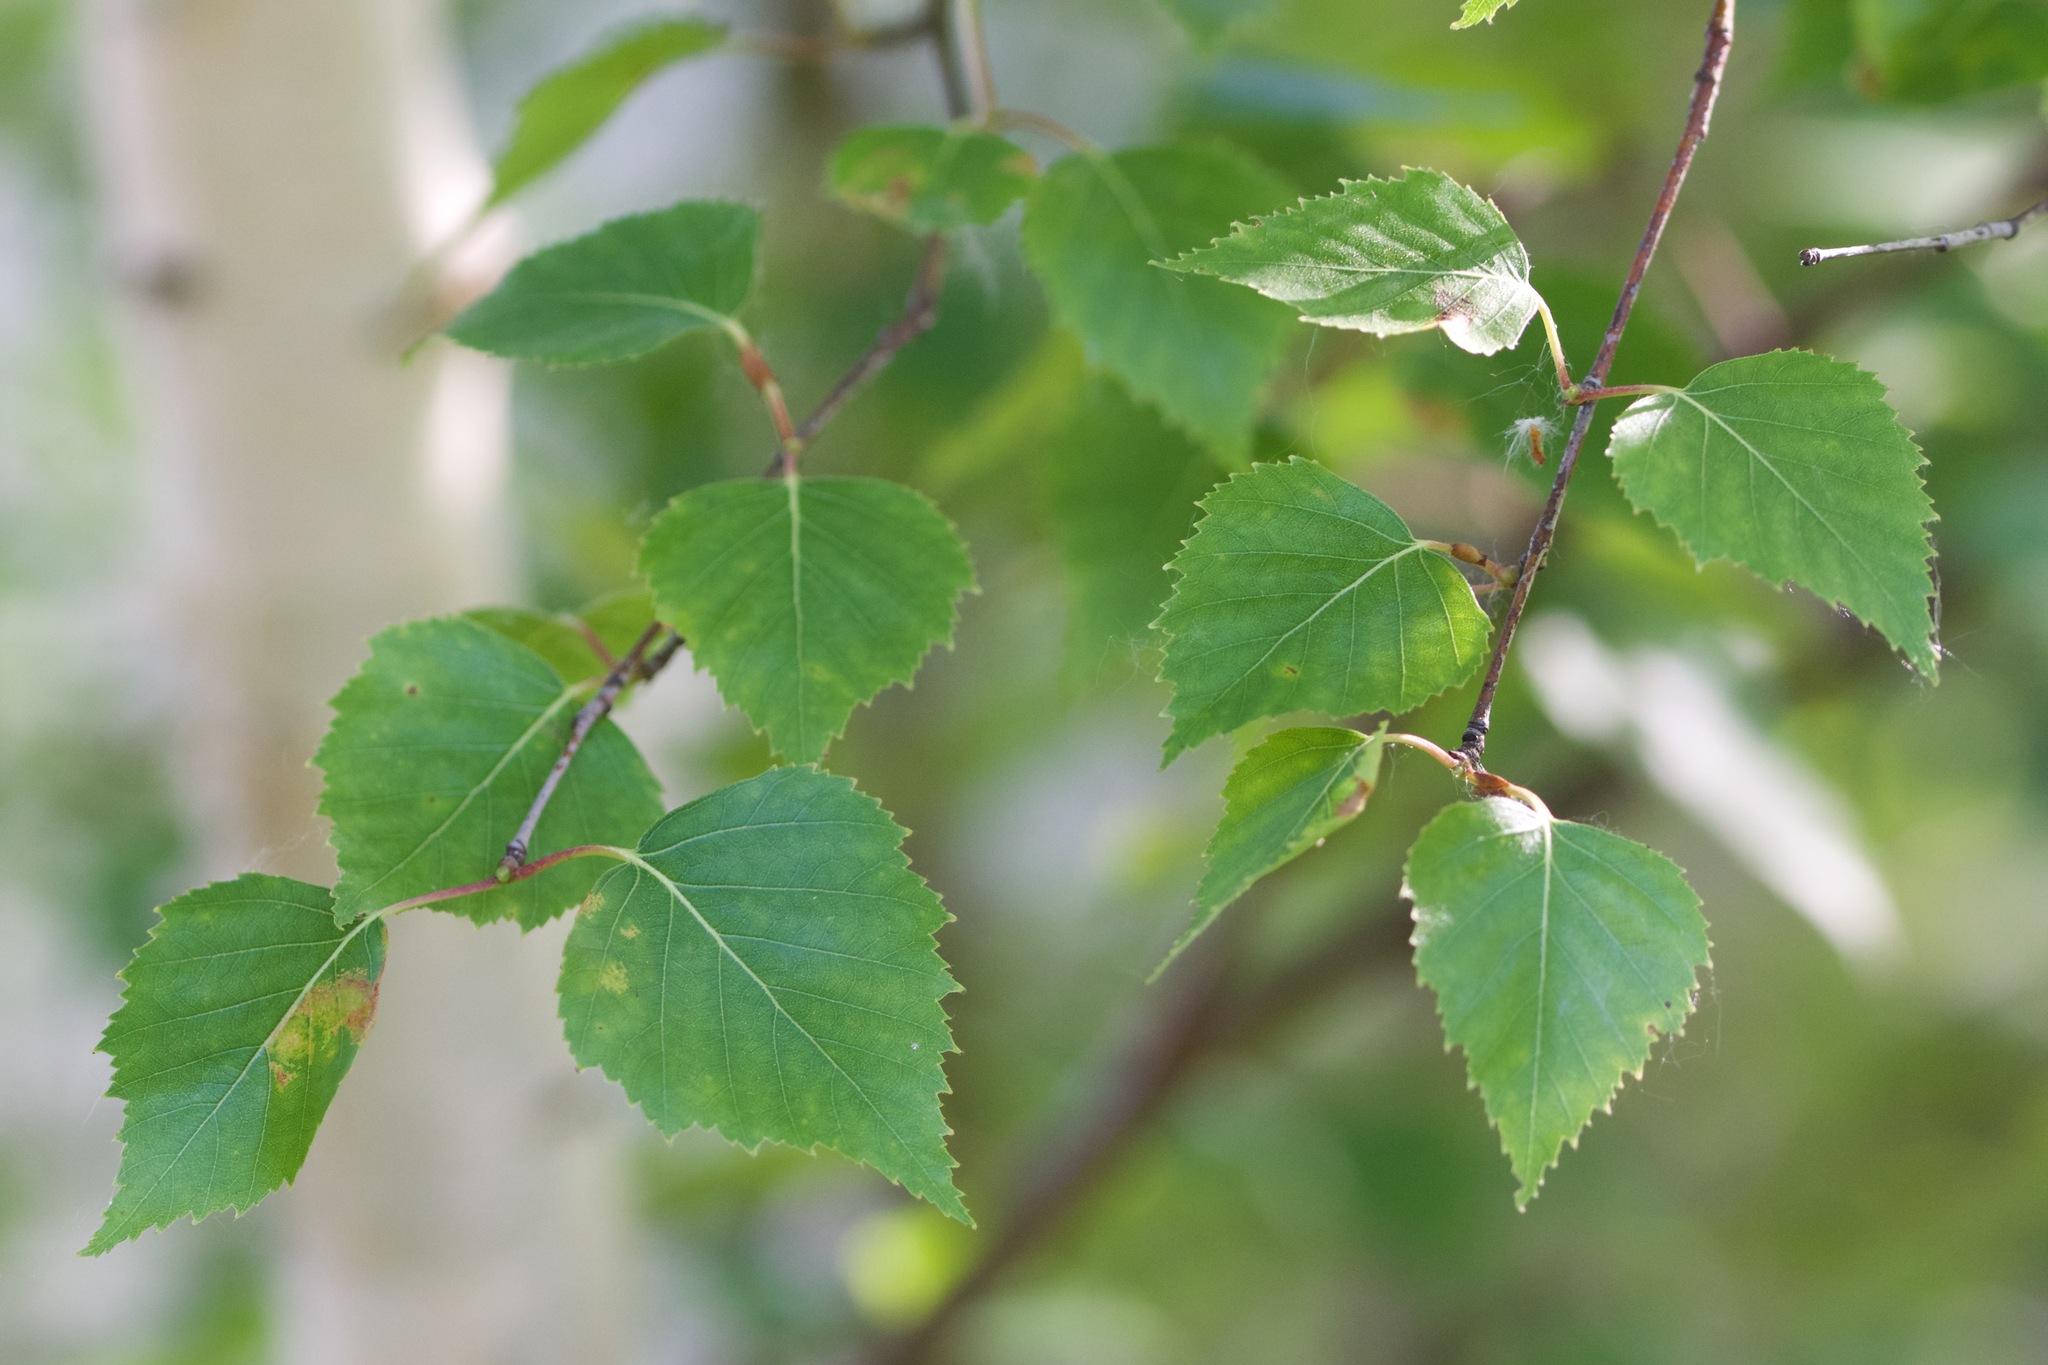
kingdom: Plantae
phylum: Tracheophyta
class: Magnoliopsida
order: Fagales
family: Betulaceae
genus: Betula
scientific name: Betula papyrifera
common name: Paper birch
